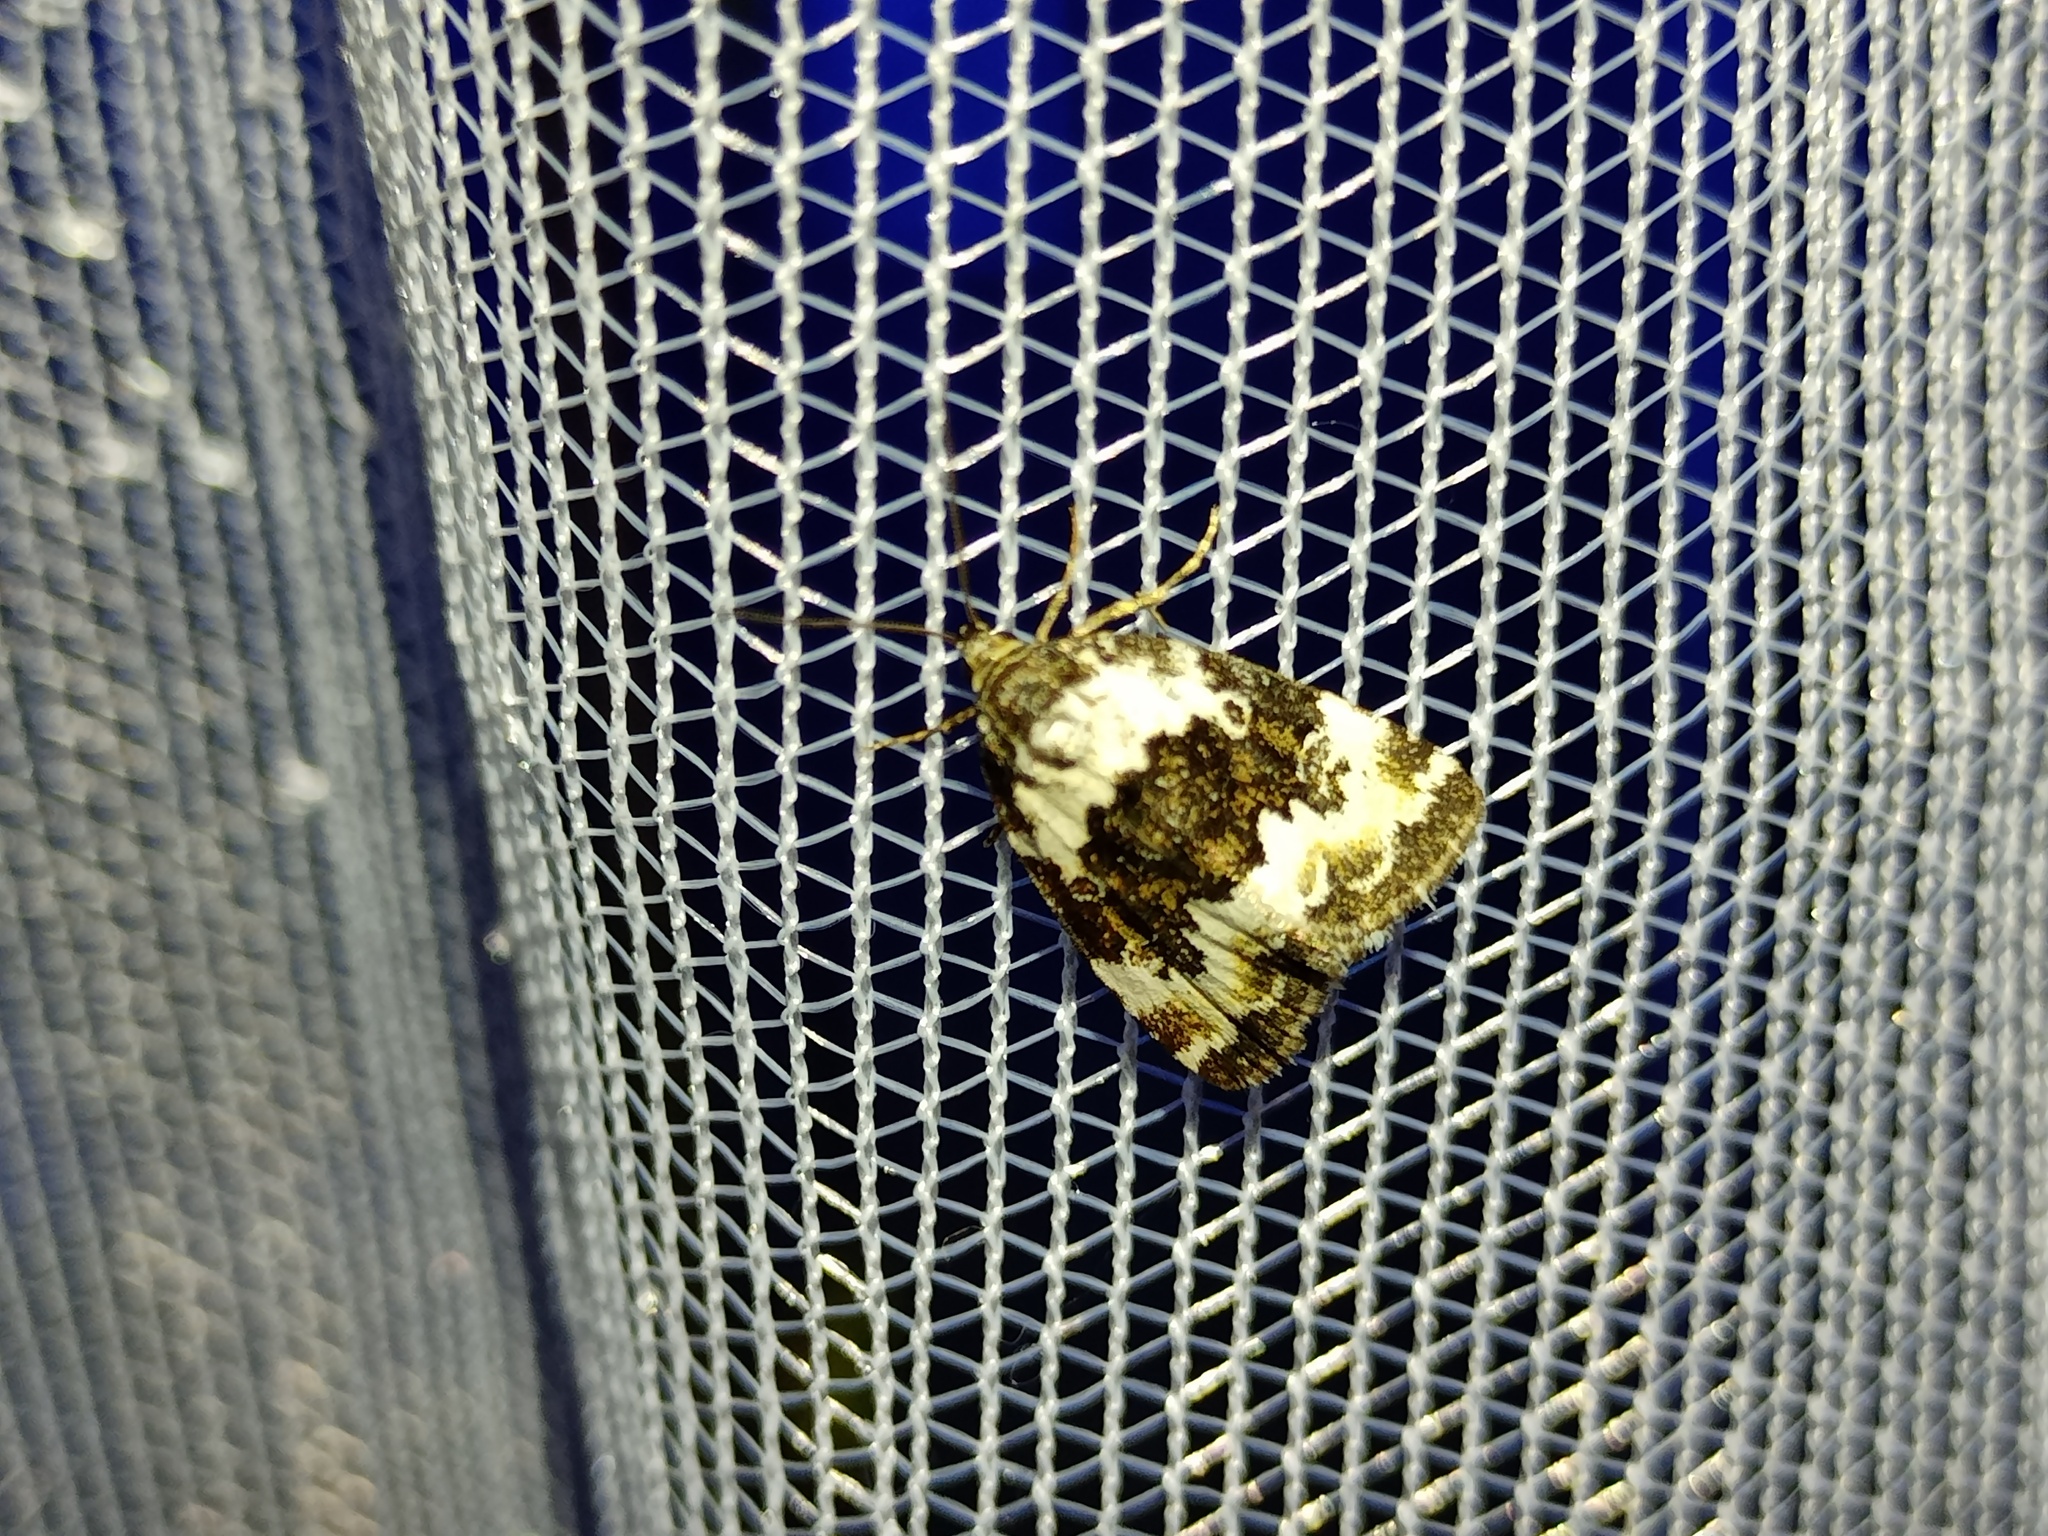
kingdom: Animalia
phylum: Arthropoda
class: Insecta
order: Lepidoptera
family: Noctuidae
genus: Deltote
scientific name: Deltote deceptoria
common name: Pretty marbled
